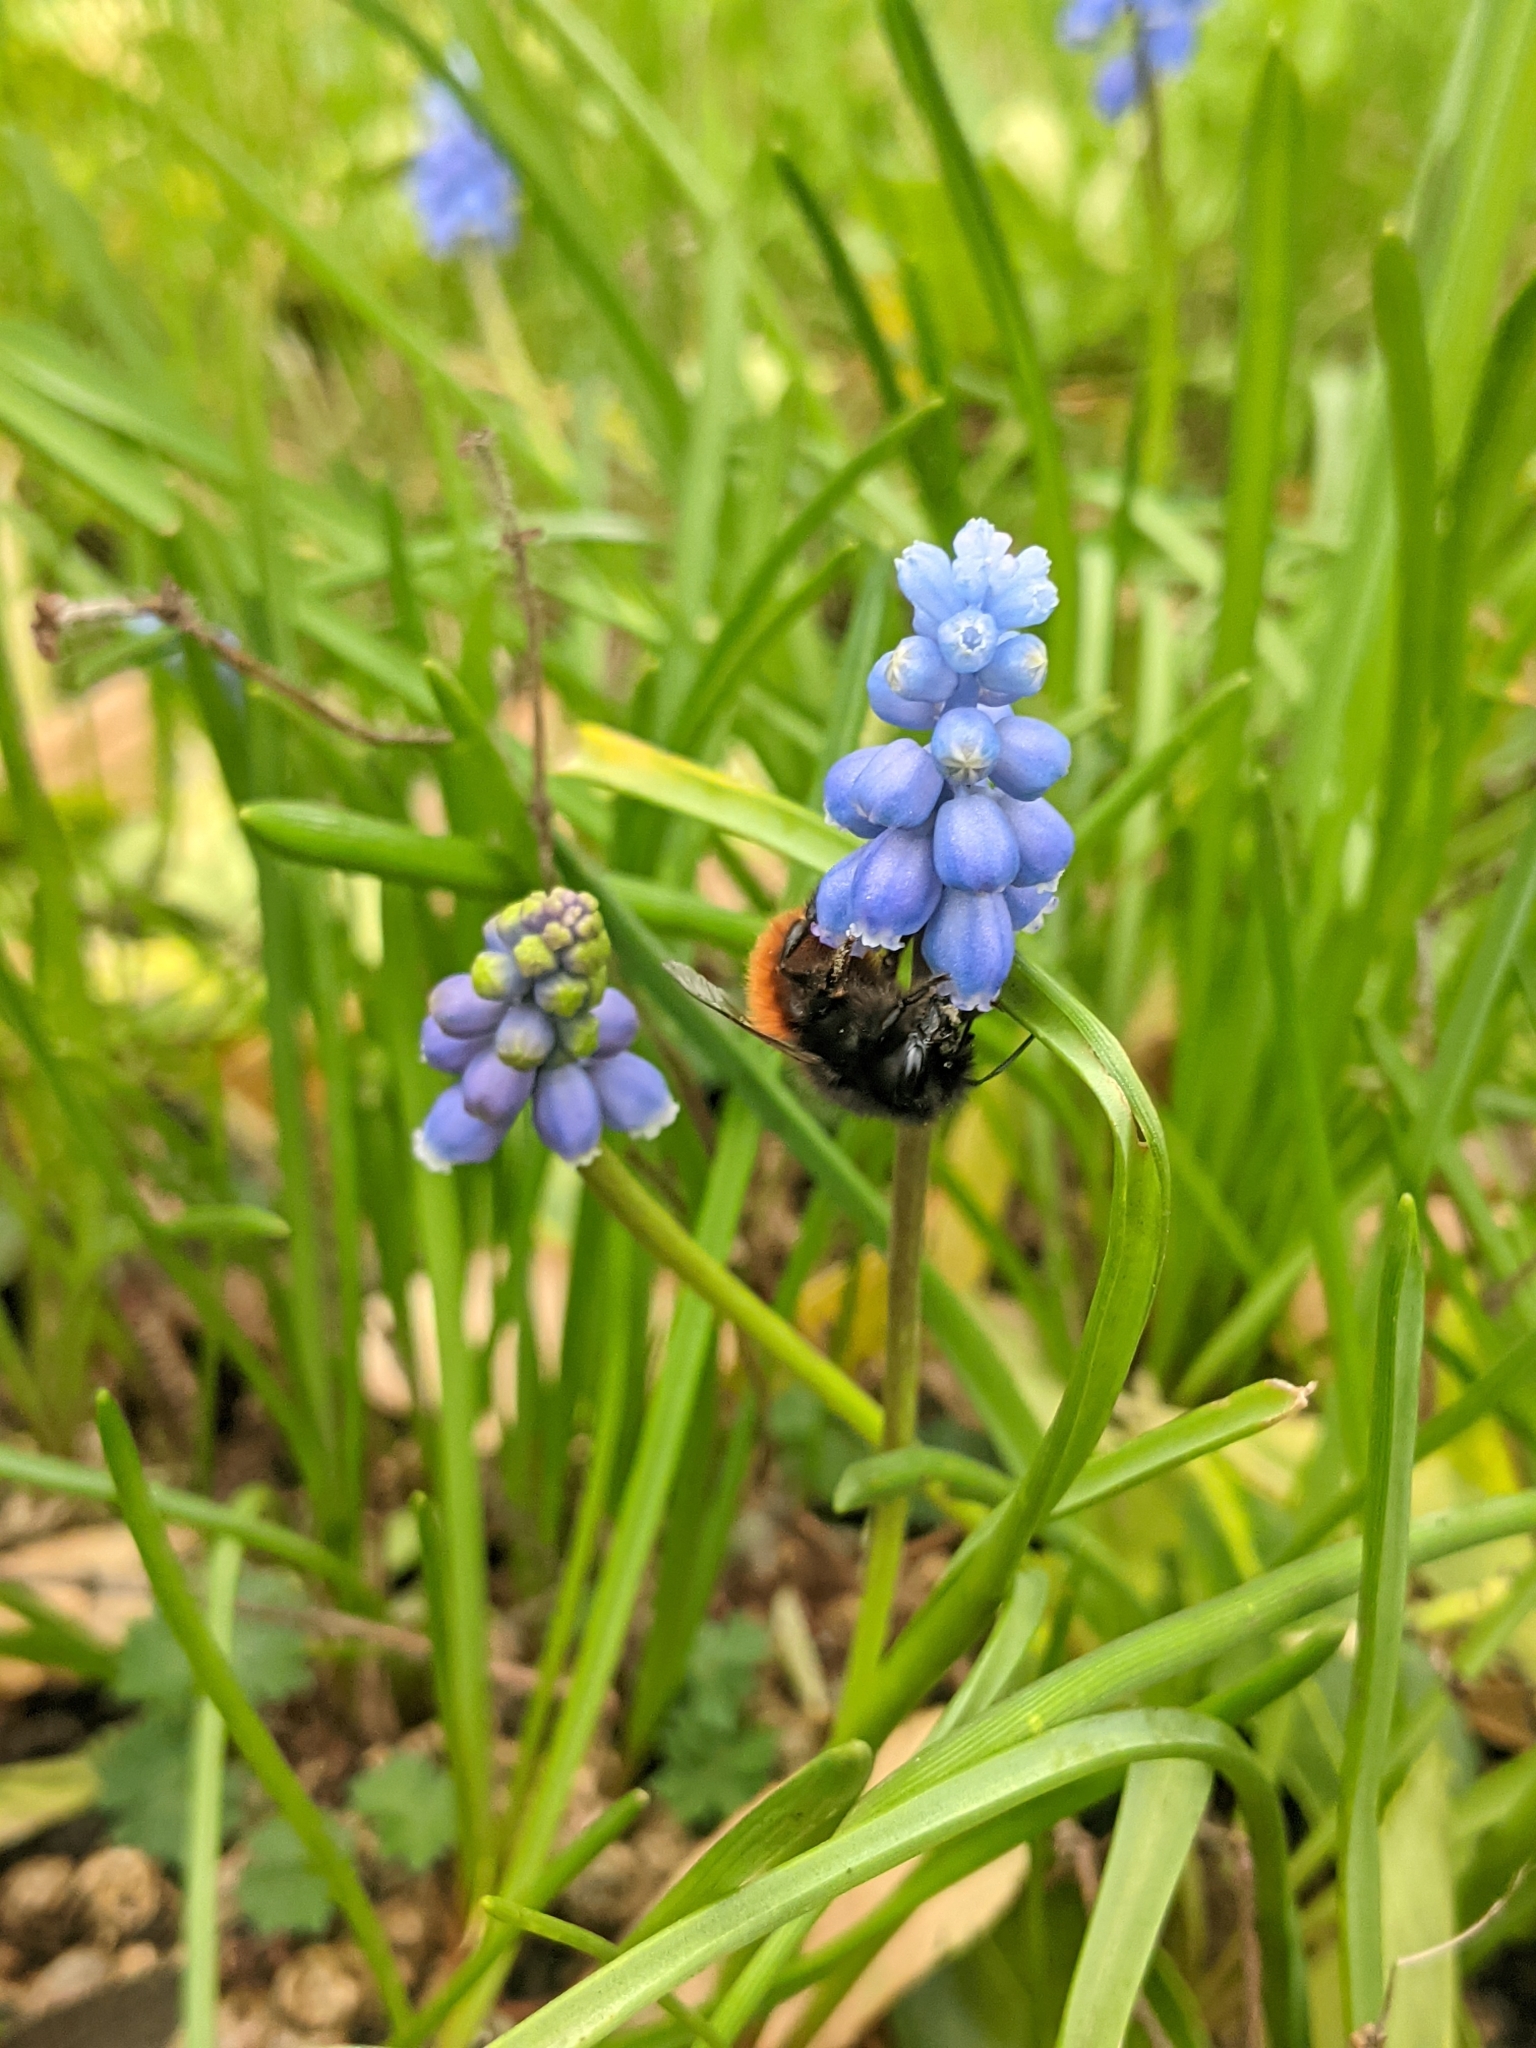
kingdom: Animalia
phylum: Arthropoda
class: Insecta
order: Hymenoptera
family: Apidae
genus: Bombus
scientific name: Bombus lapidarius
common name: Large red-tailed humble-bee
